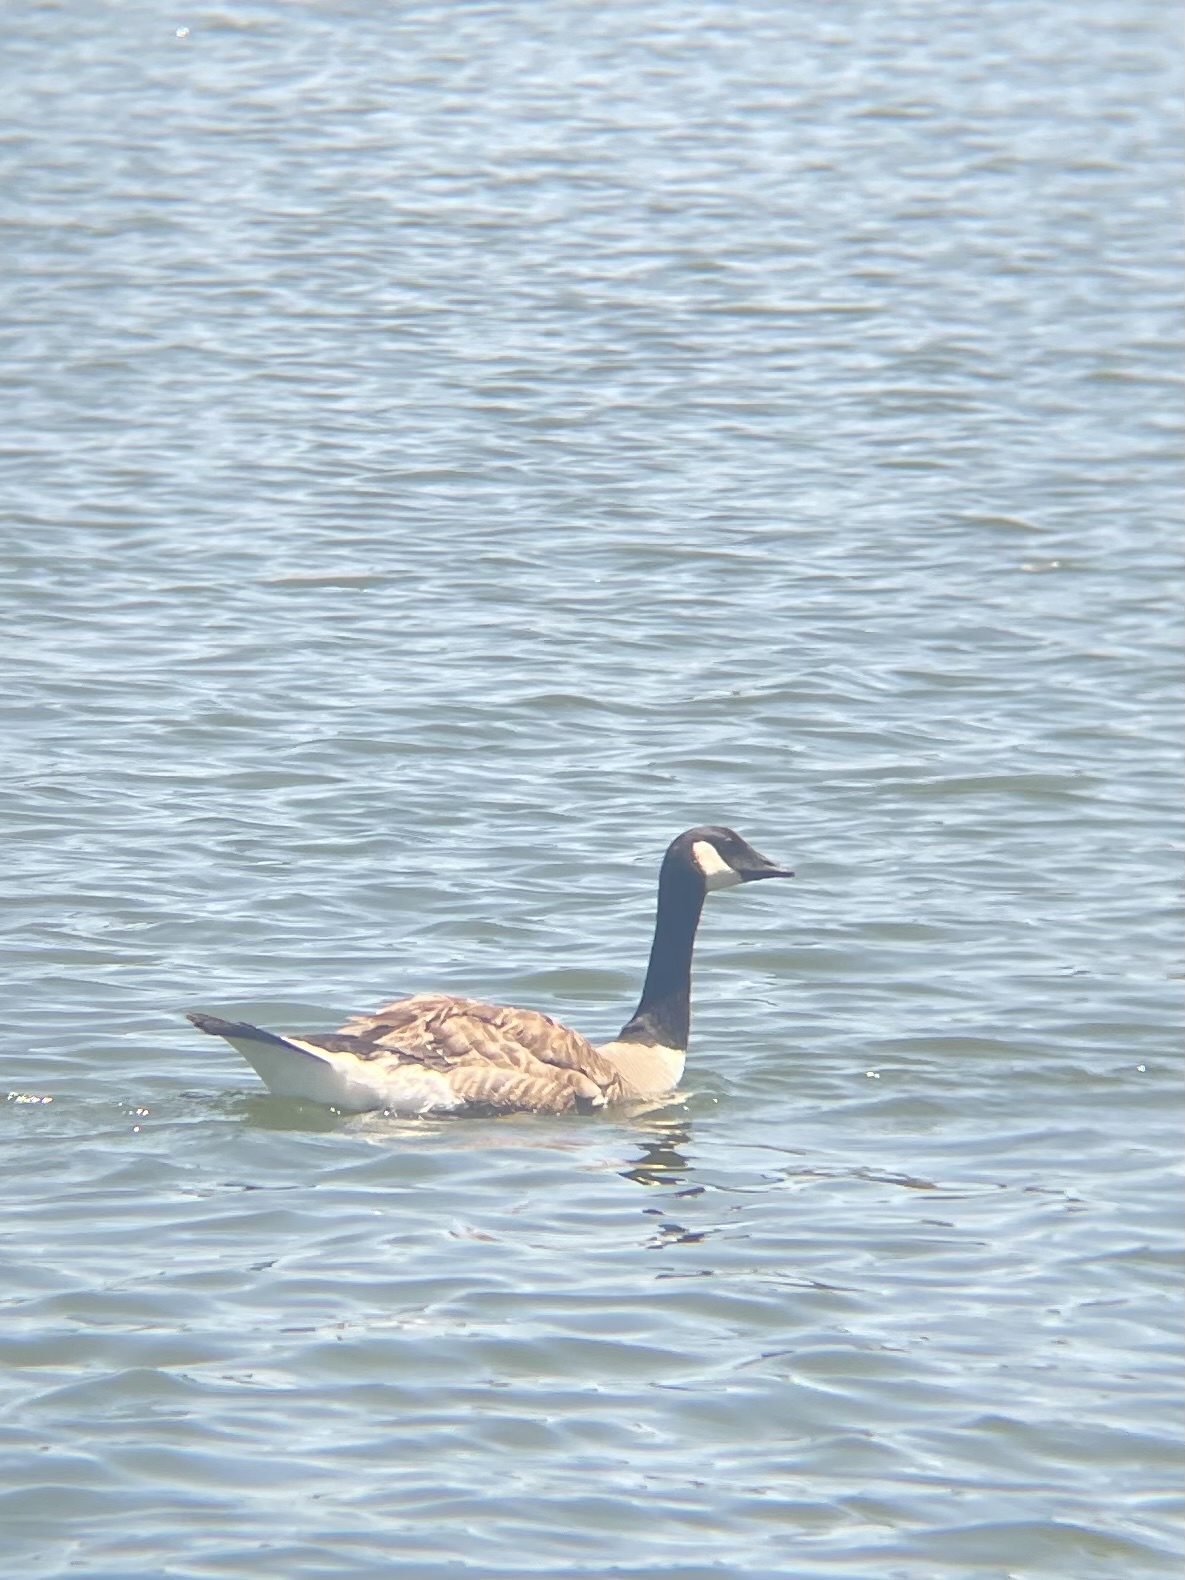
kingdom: Animalia
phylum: Chordata
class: Aves
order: Anseriformes
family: Anatidae
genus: Branta
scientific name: Branta canadensis
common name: Canada goose
